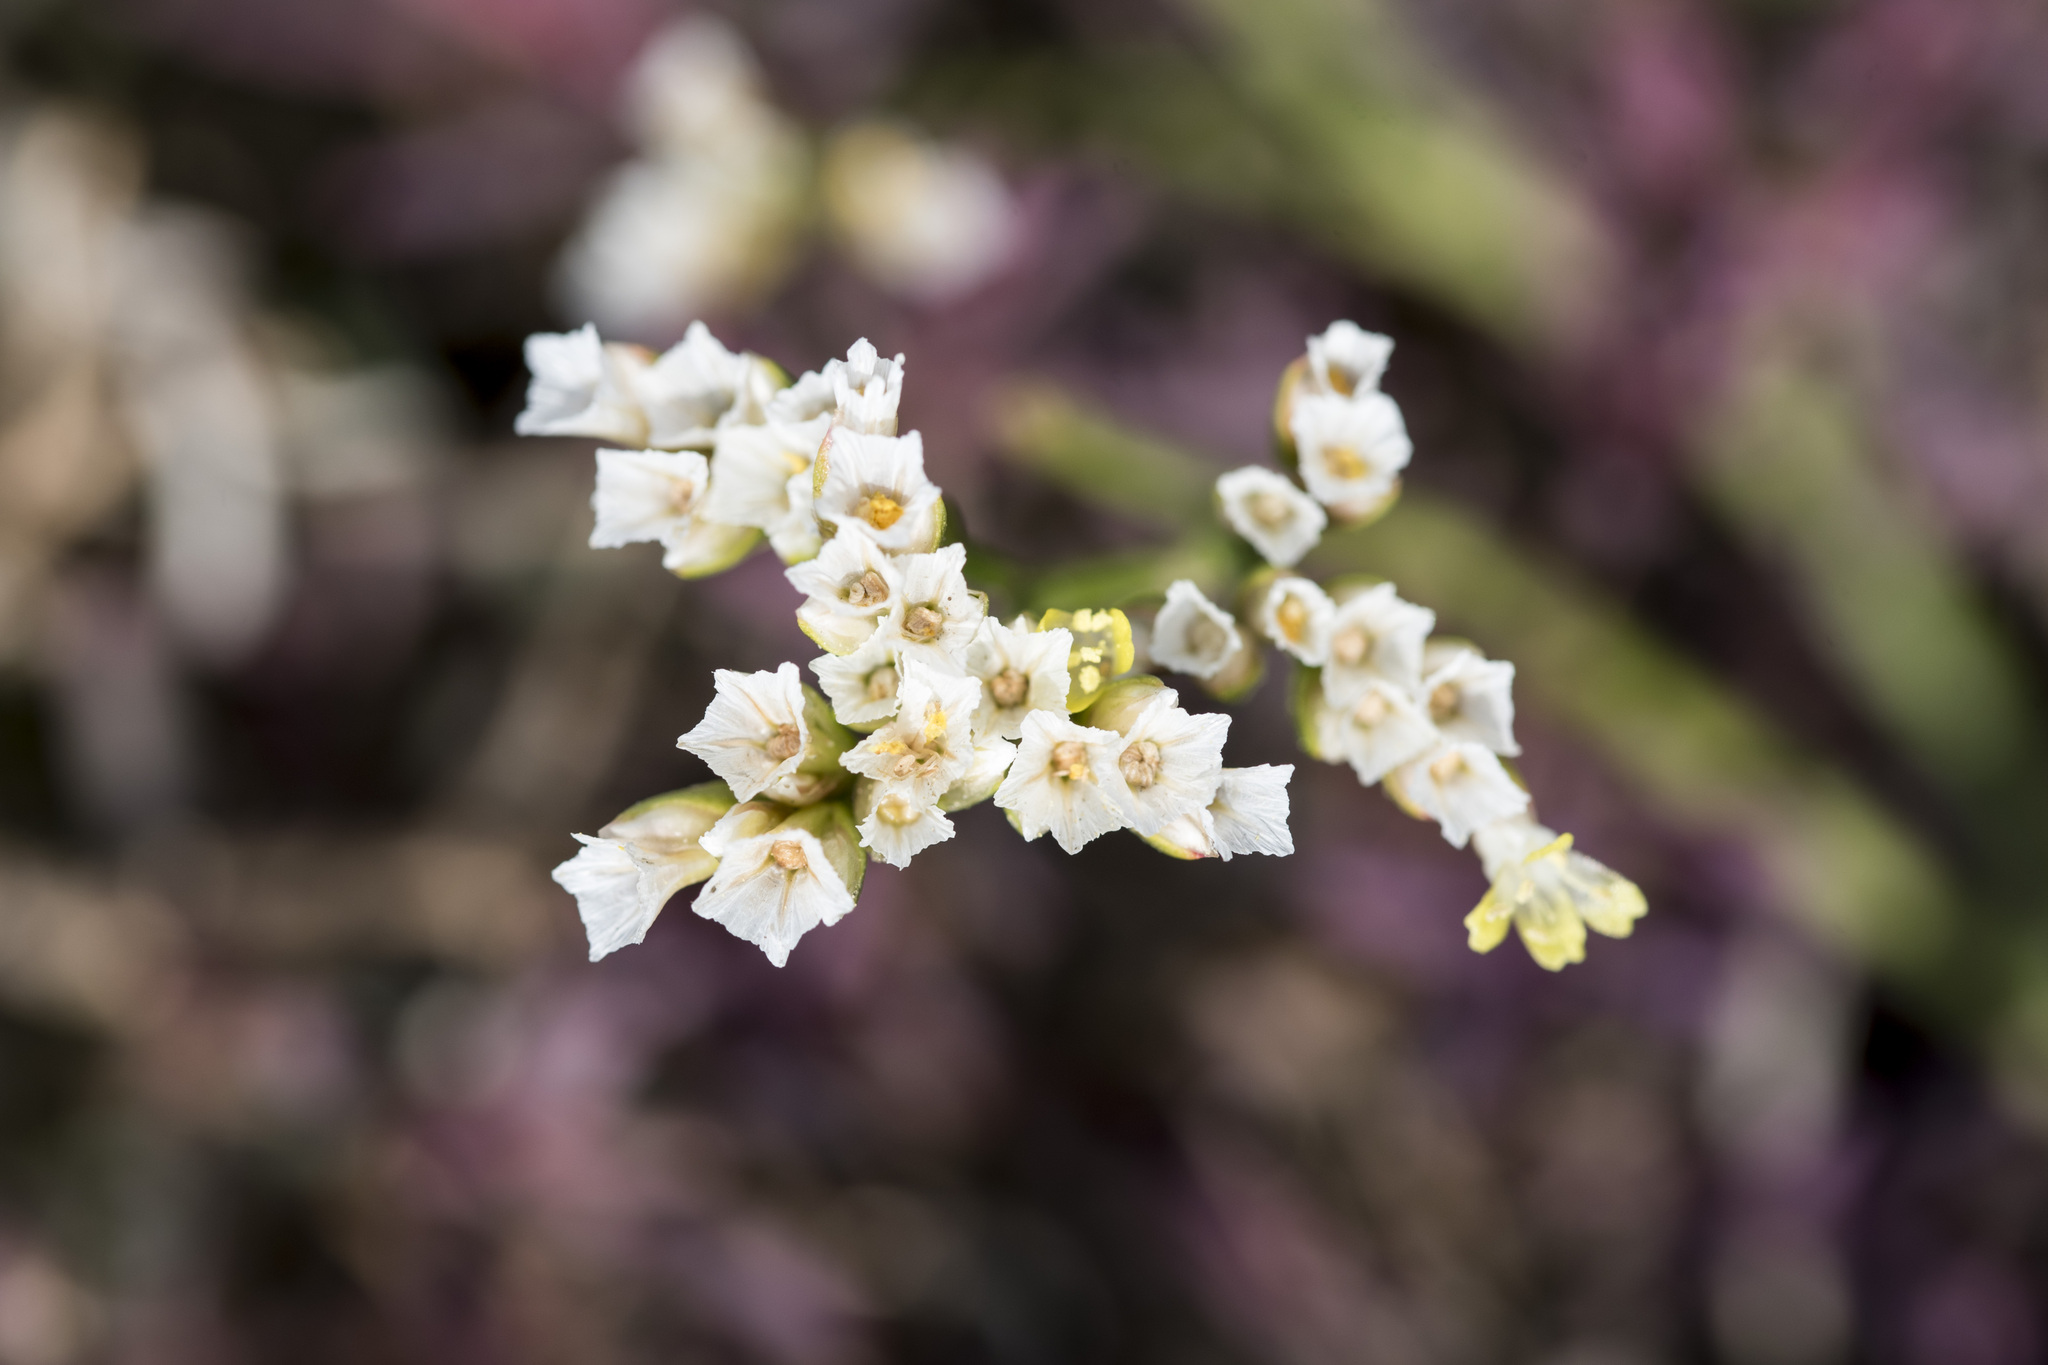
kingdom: Plantae
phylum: Tracheophyta
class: Magnoliopsida
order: Caryophyllales
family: Plumbaginaceae
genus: Limonium
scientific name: Limonium sinense
